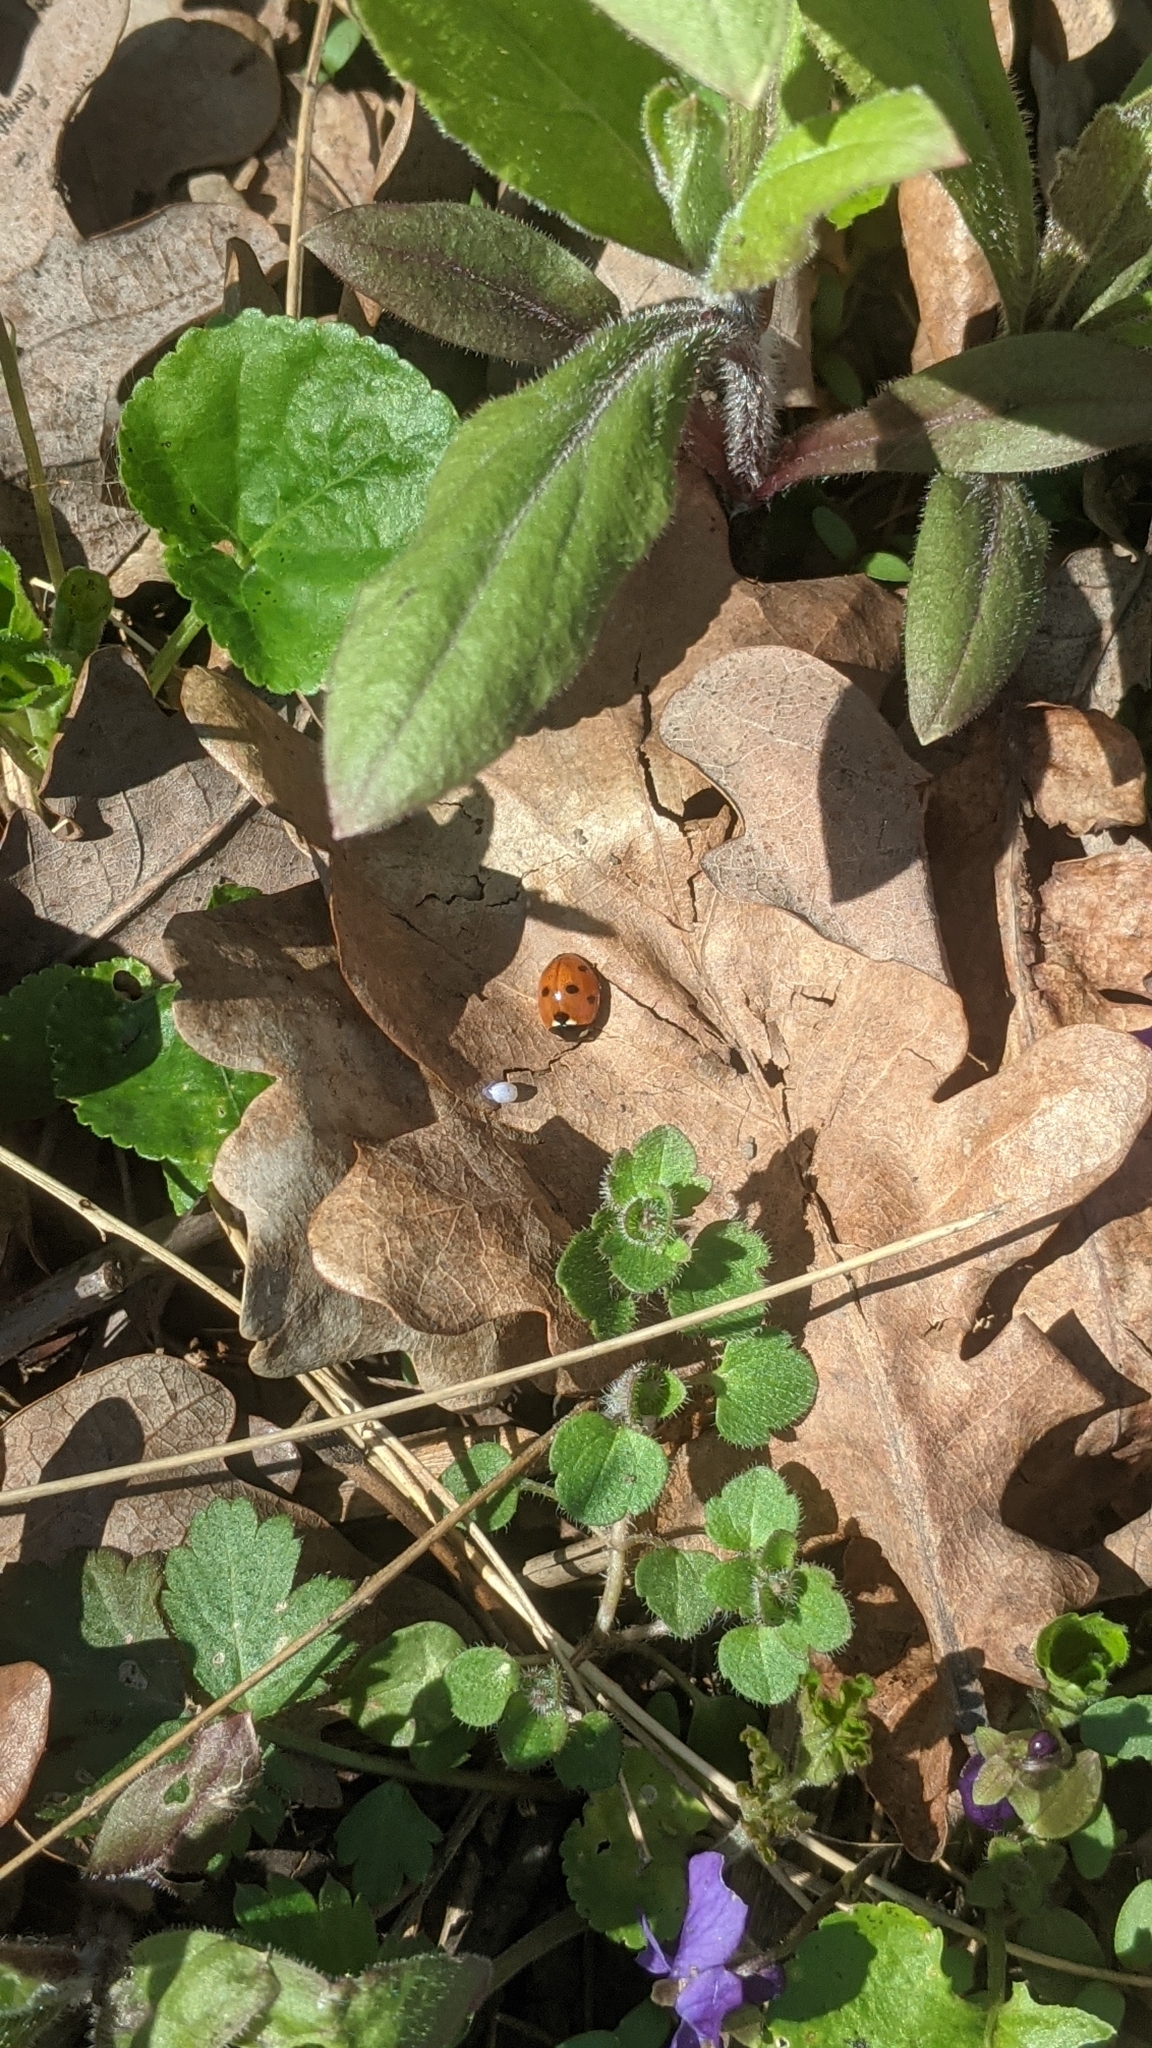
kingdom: Animalia
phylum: Arthropoda
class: Insecta
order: Coleoptera
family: Coccinellidae
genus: Coccinella
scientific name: Coccinella septempunctata
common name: Sevenspotted lady beetle
